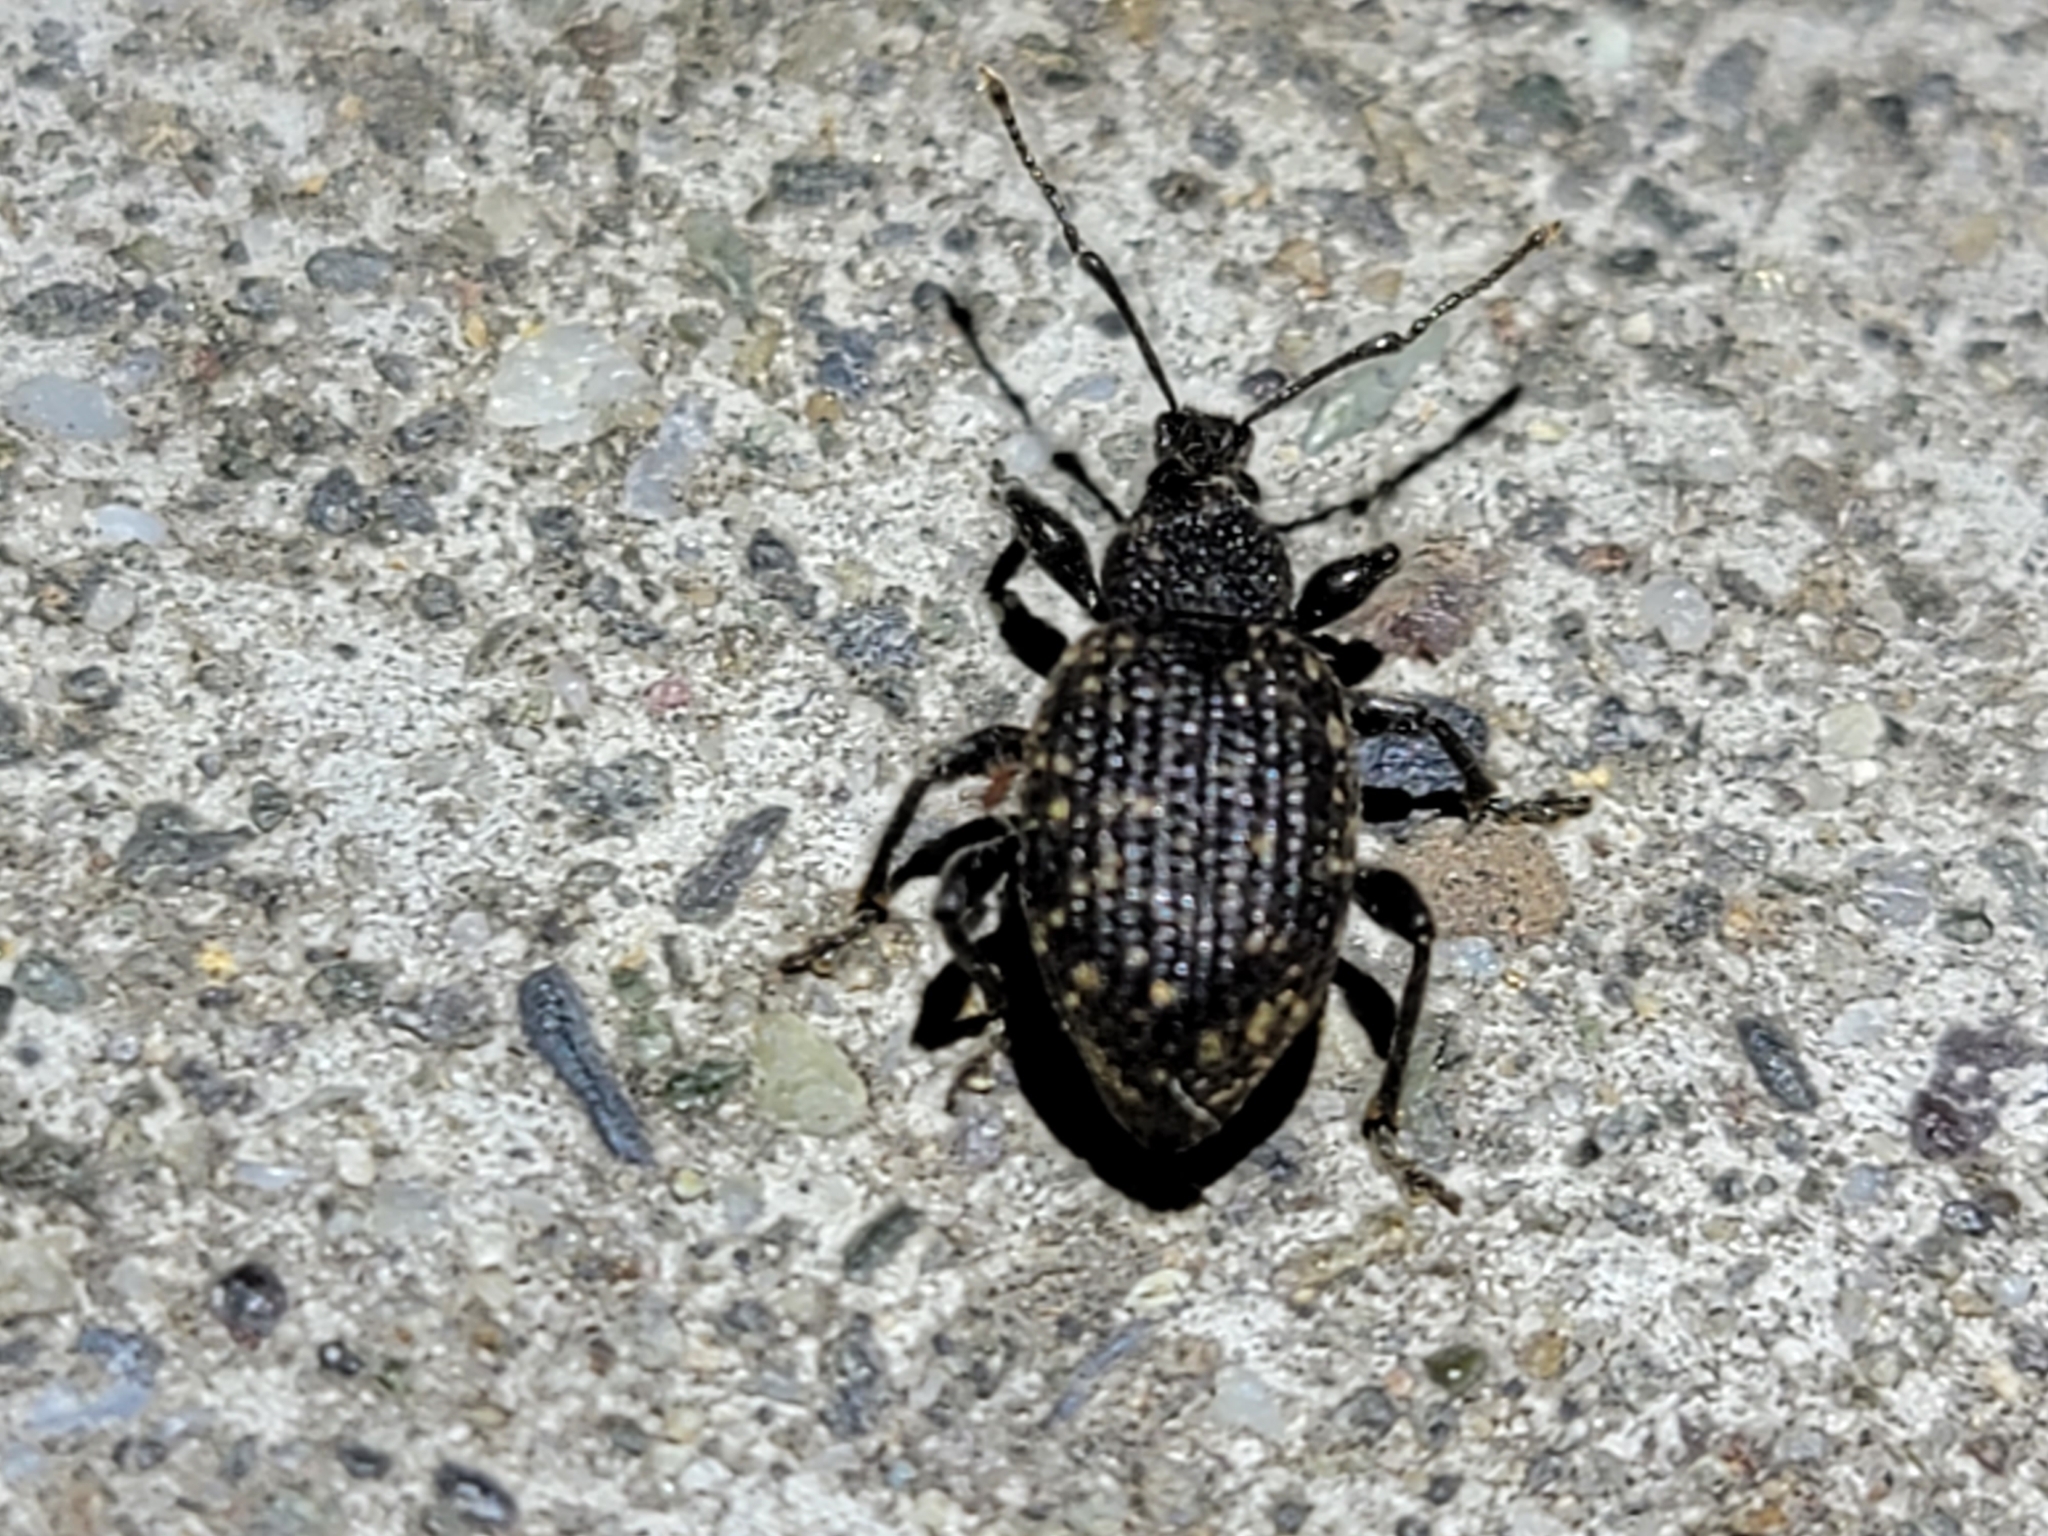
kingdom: Animalia
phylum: Arthropoda
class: Insecta
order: Coleoptera
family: Curculionidae
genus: Otiorhynchus
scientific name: Otiorhynchus sulcatus
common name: Black vine weevil
